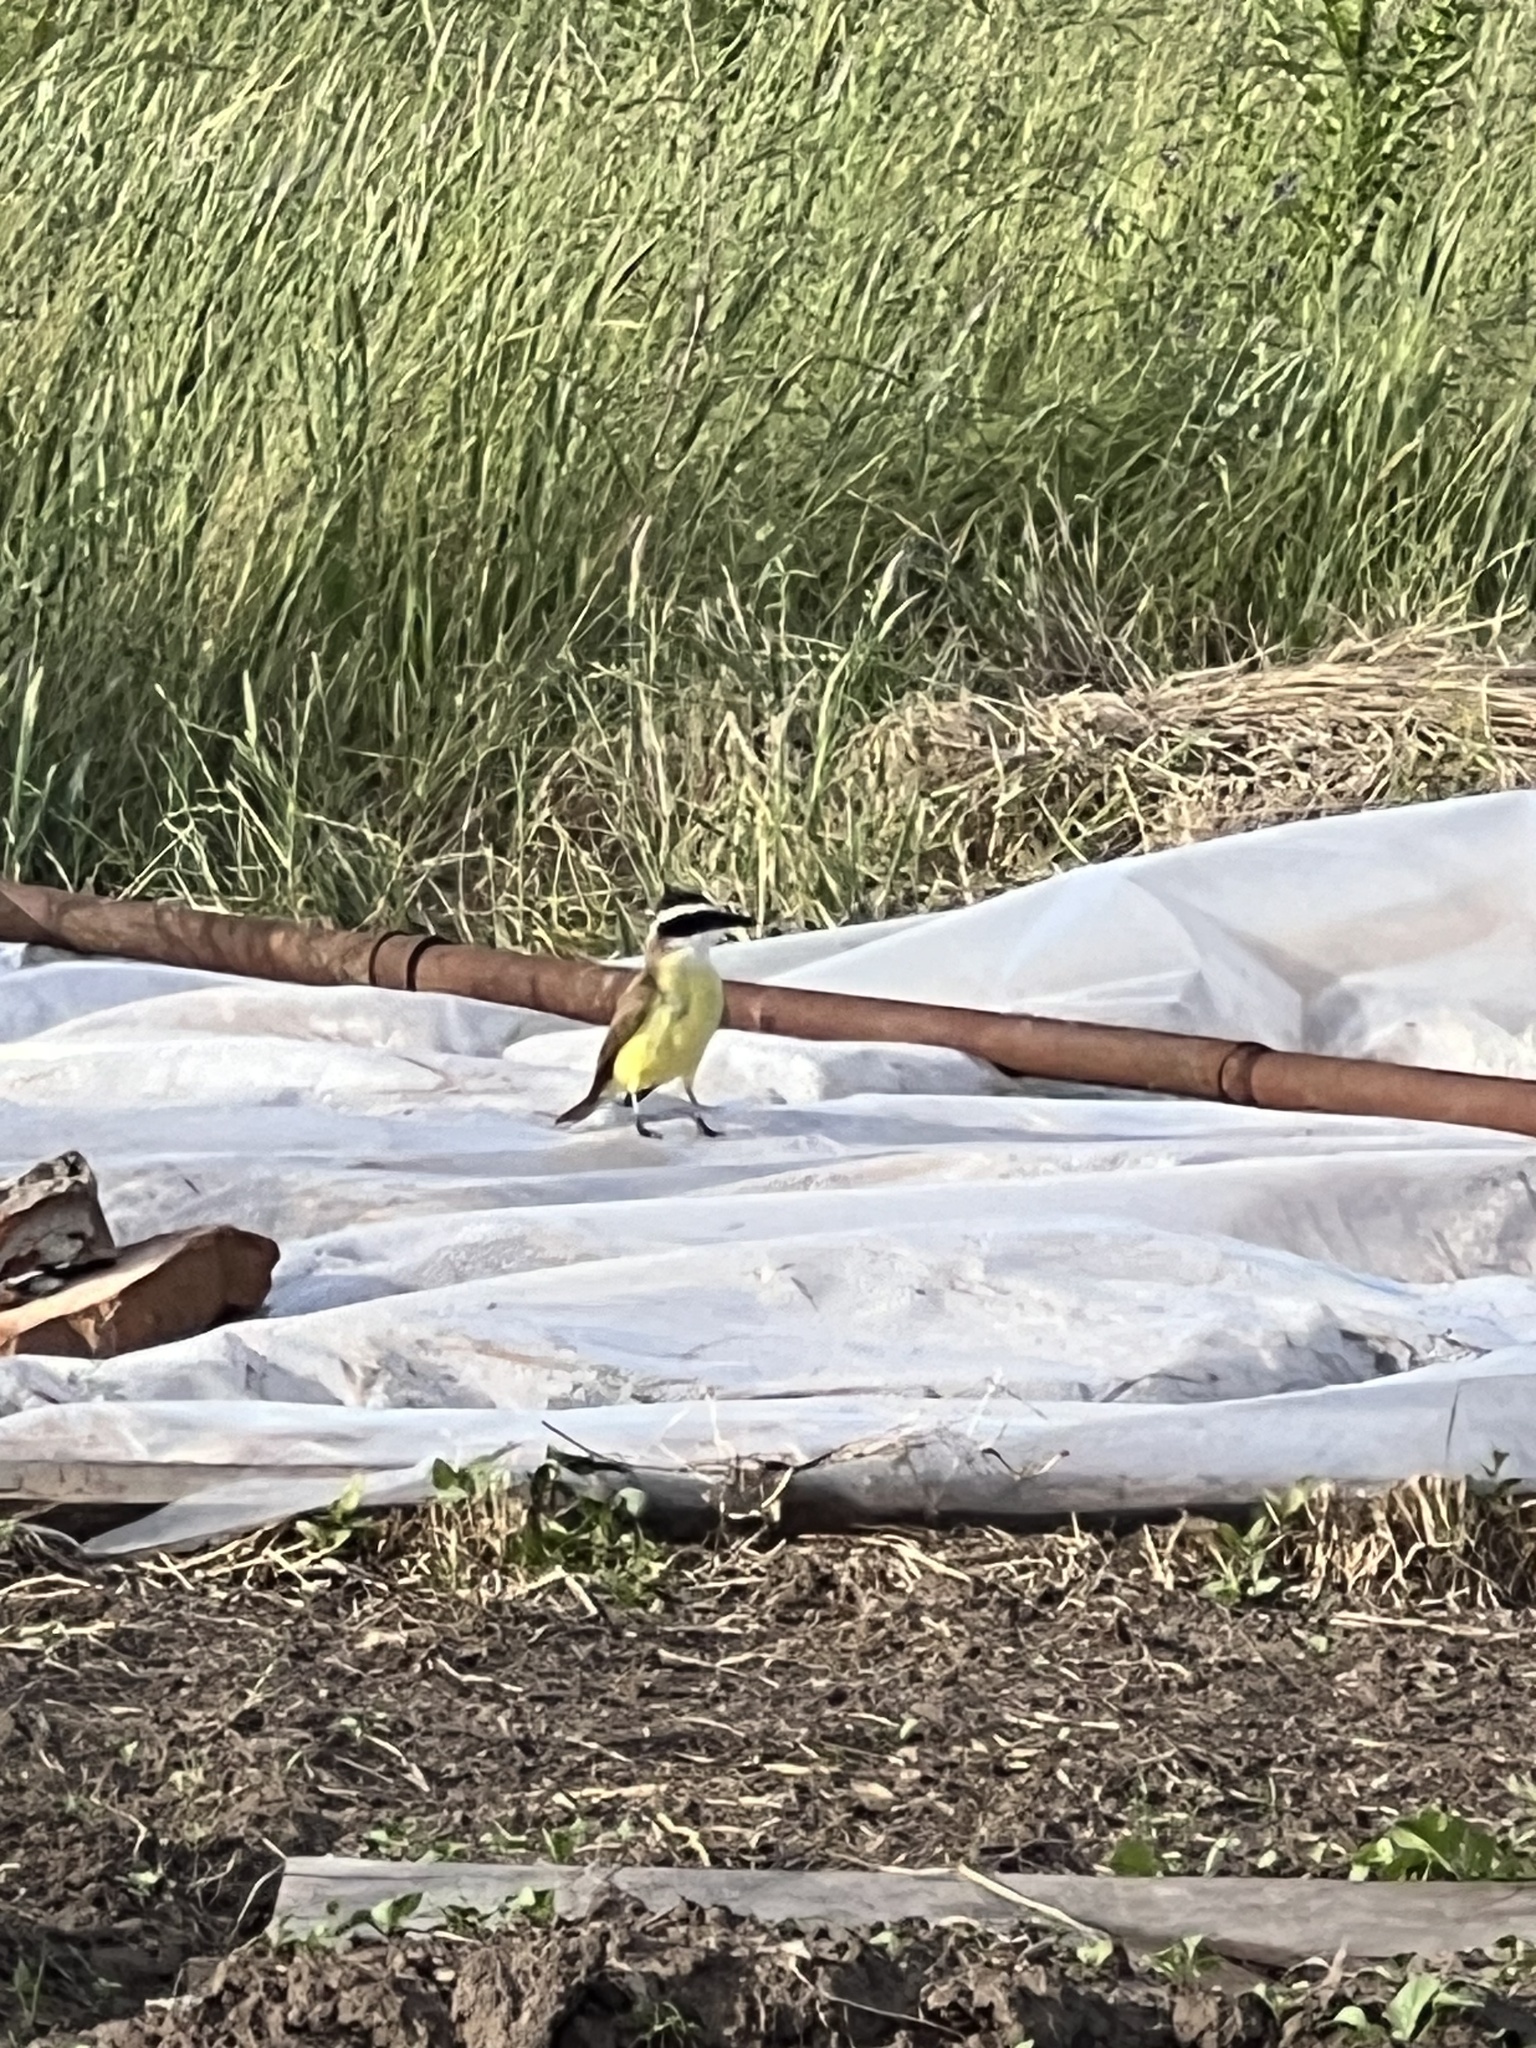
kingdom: Animalia
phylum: Chordata
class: Aves
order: Passeriformes
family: Tyrannidae
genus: Pitangus
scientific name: Pitangus sulphuratus
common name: Great kiskadee
